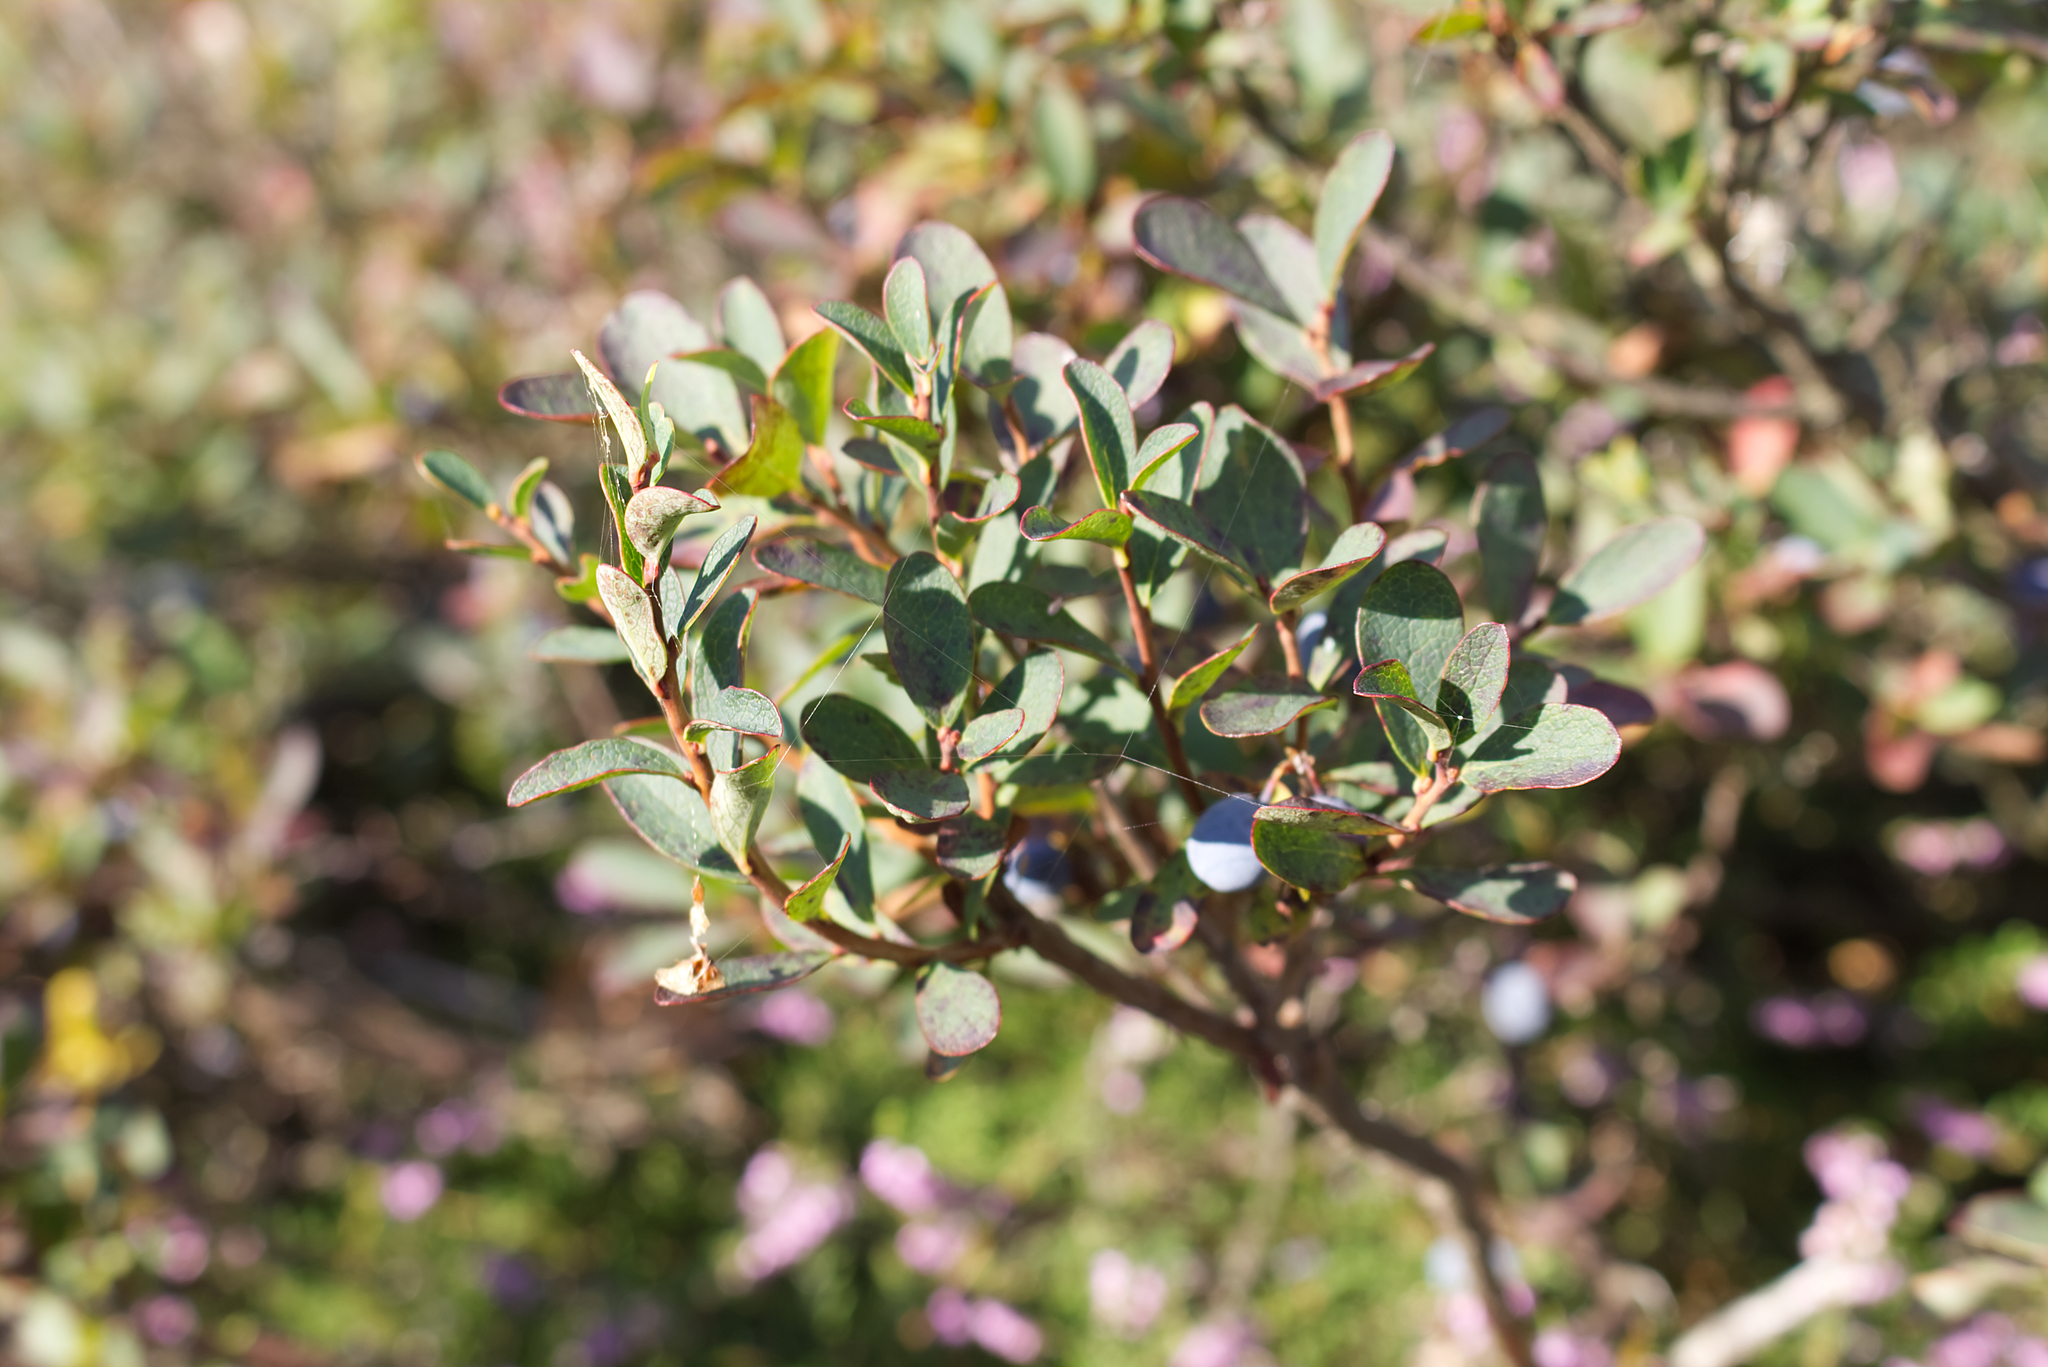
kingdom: Plantae
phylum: Tracheophyta
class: Magnoliopsida
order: Ericales
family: Ericaceae
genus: Vaccinium
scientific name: Vaccinium uliginosum
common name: Bog bilberry
